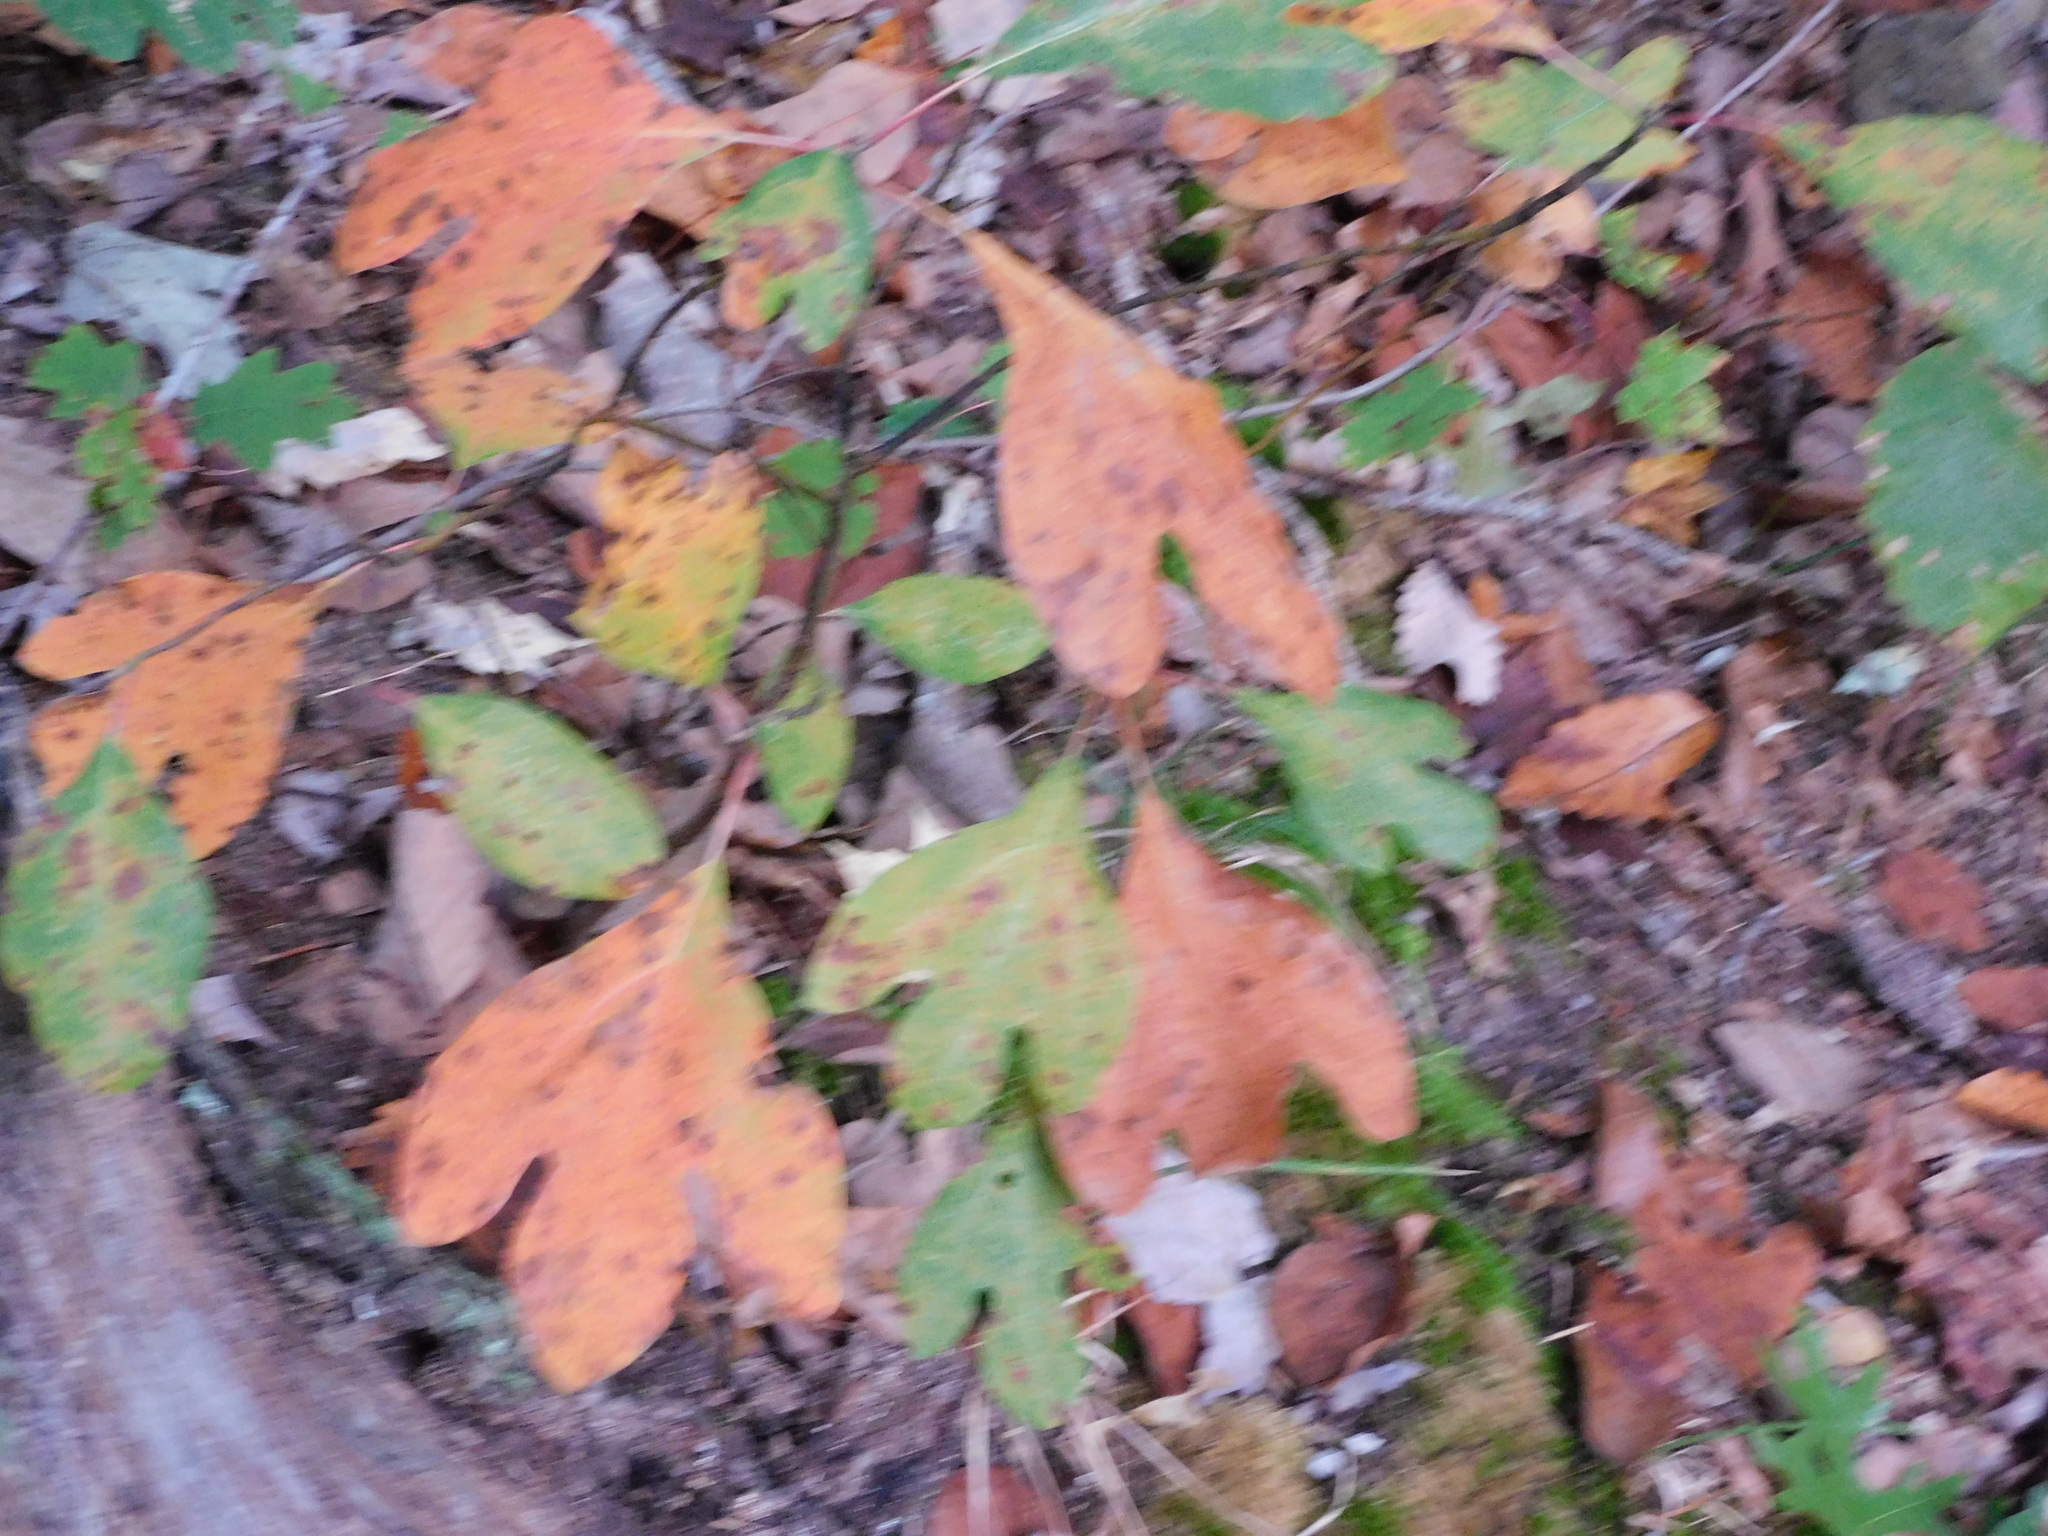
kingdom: Plantae
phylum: Tracheophyta
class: Magnoliopsida
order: Laurales
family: Lauraceae
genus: Sassafras
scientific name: Sassafras albidum
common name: Sassafras
